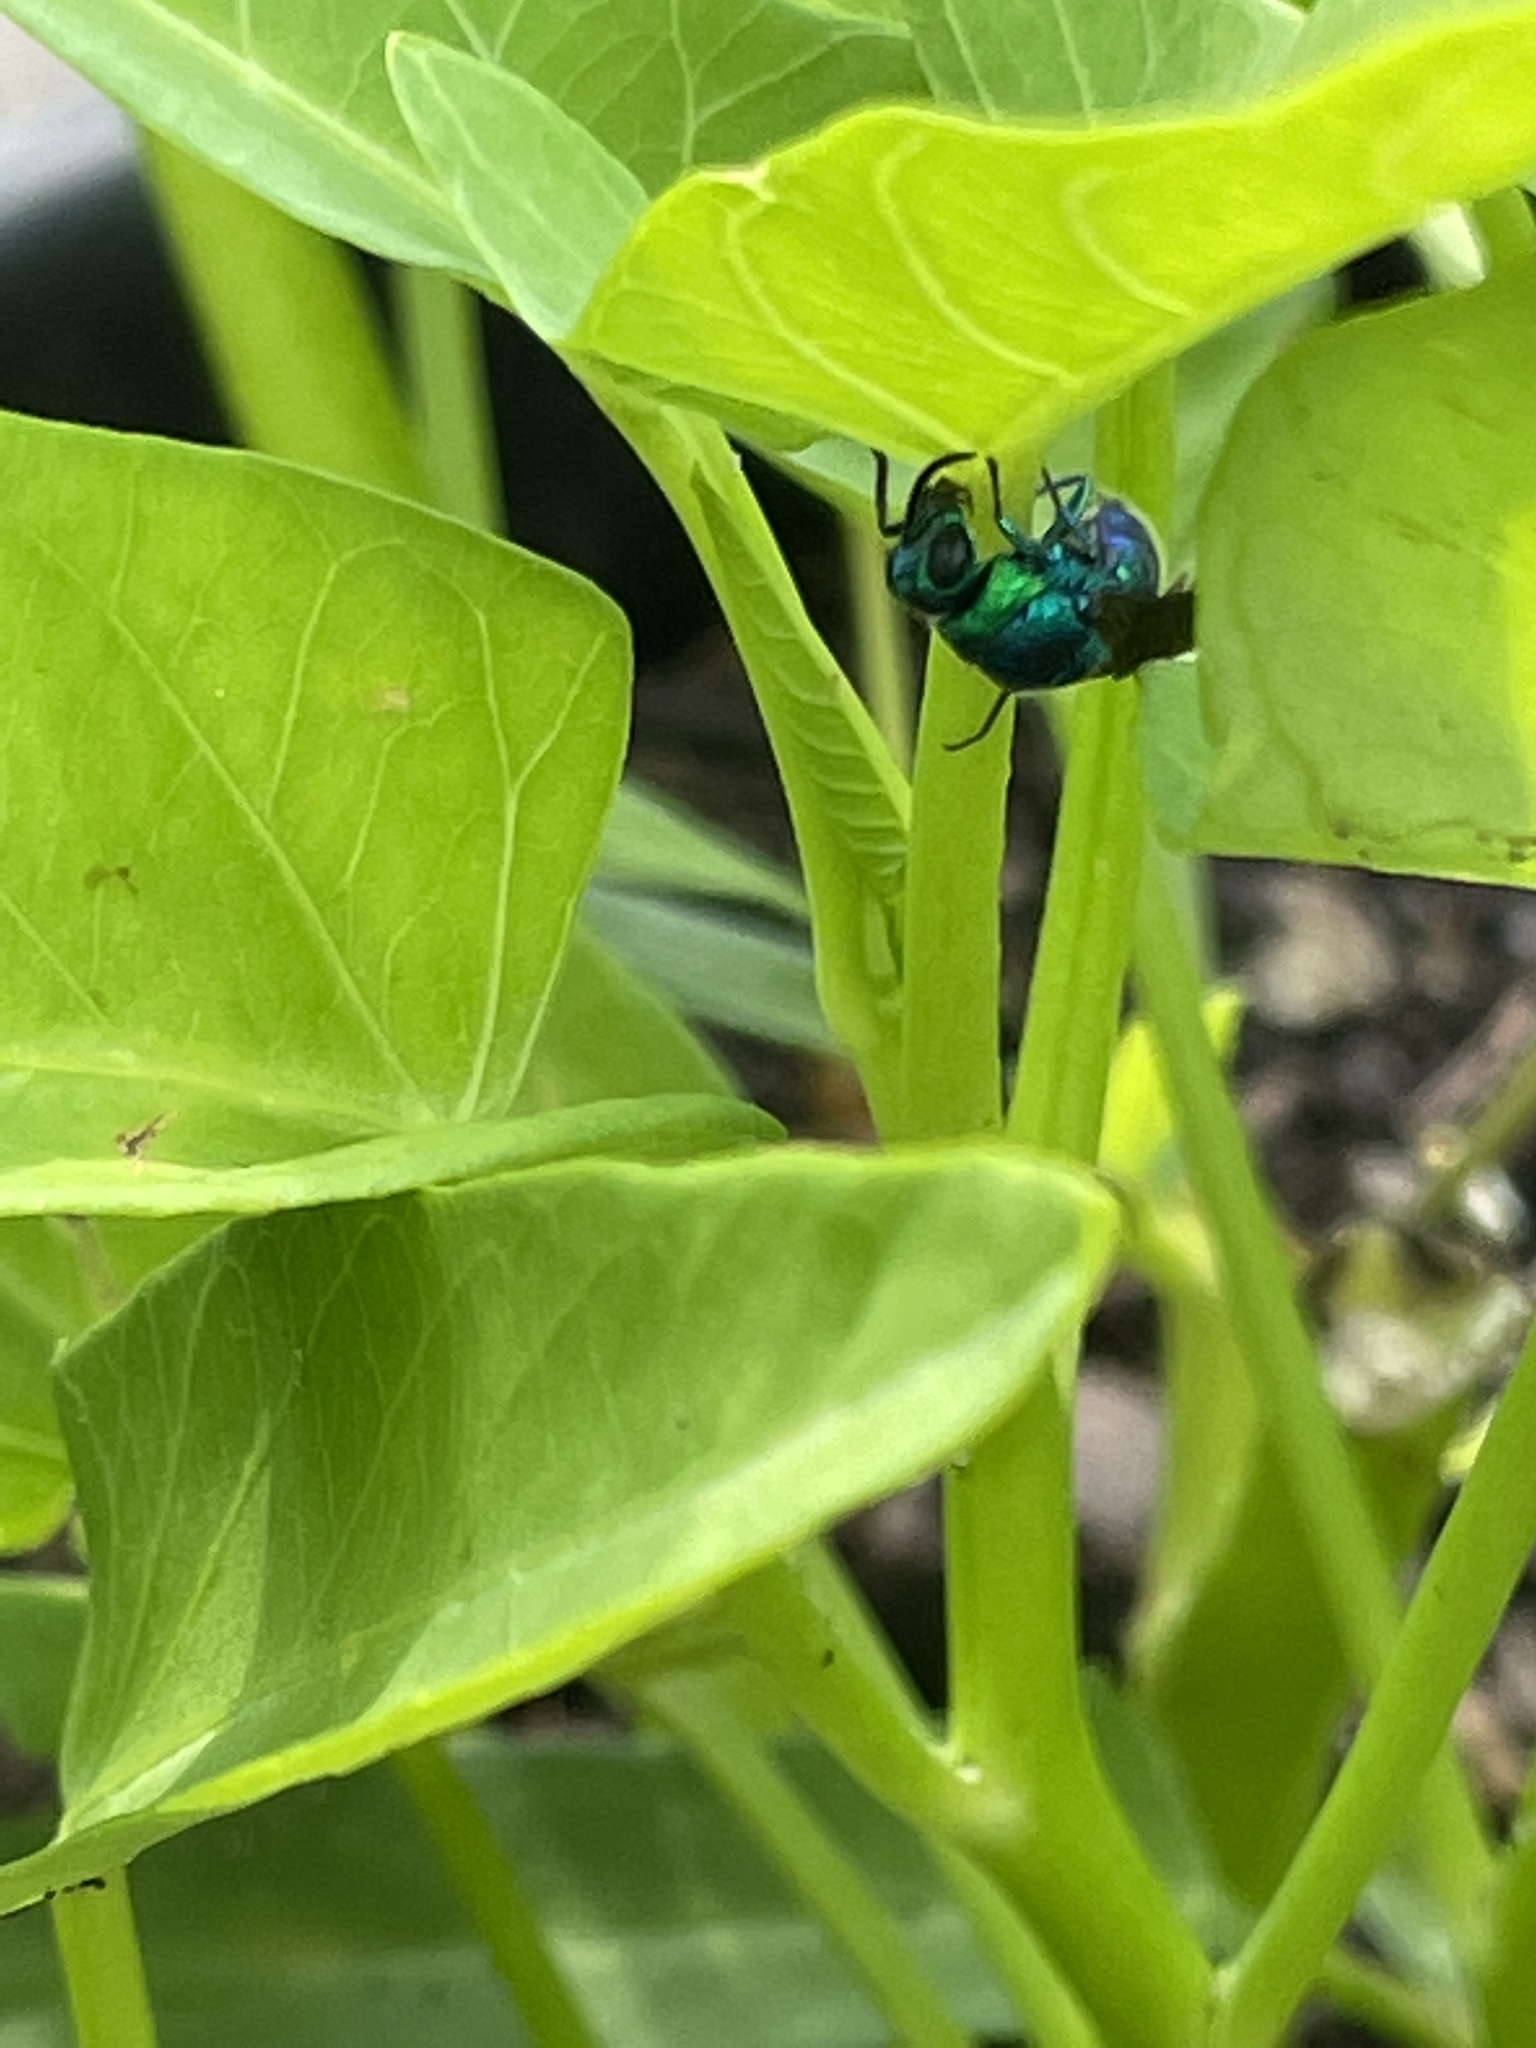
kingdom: Animalia
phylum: Arthropoda
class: Insecta
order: Hymenoptera
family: Chrysididae
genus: Chrysis
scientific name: Chrysis angolensis
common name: Cuckoo wasp
